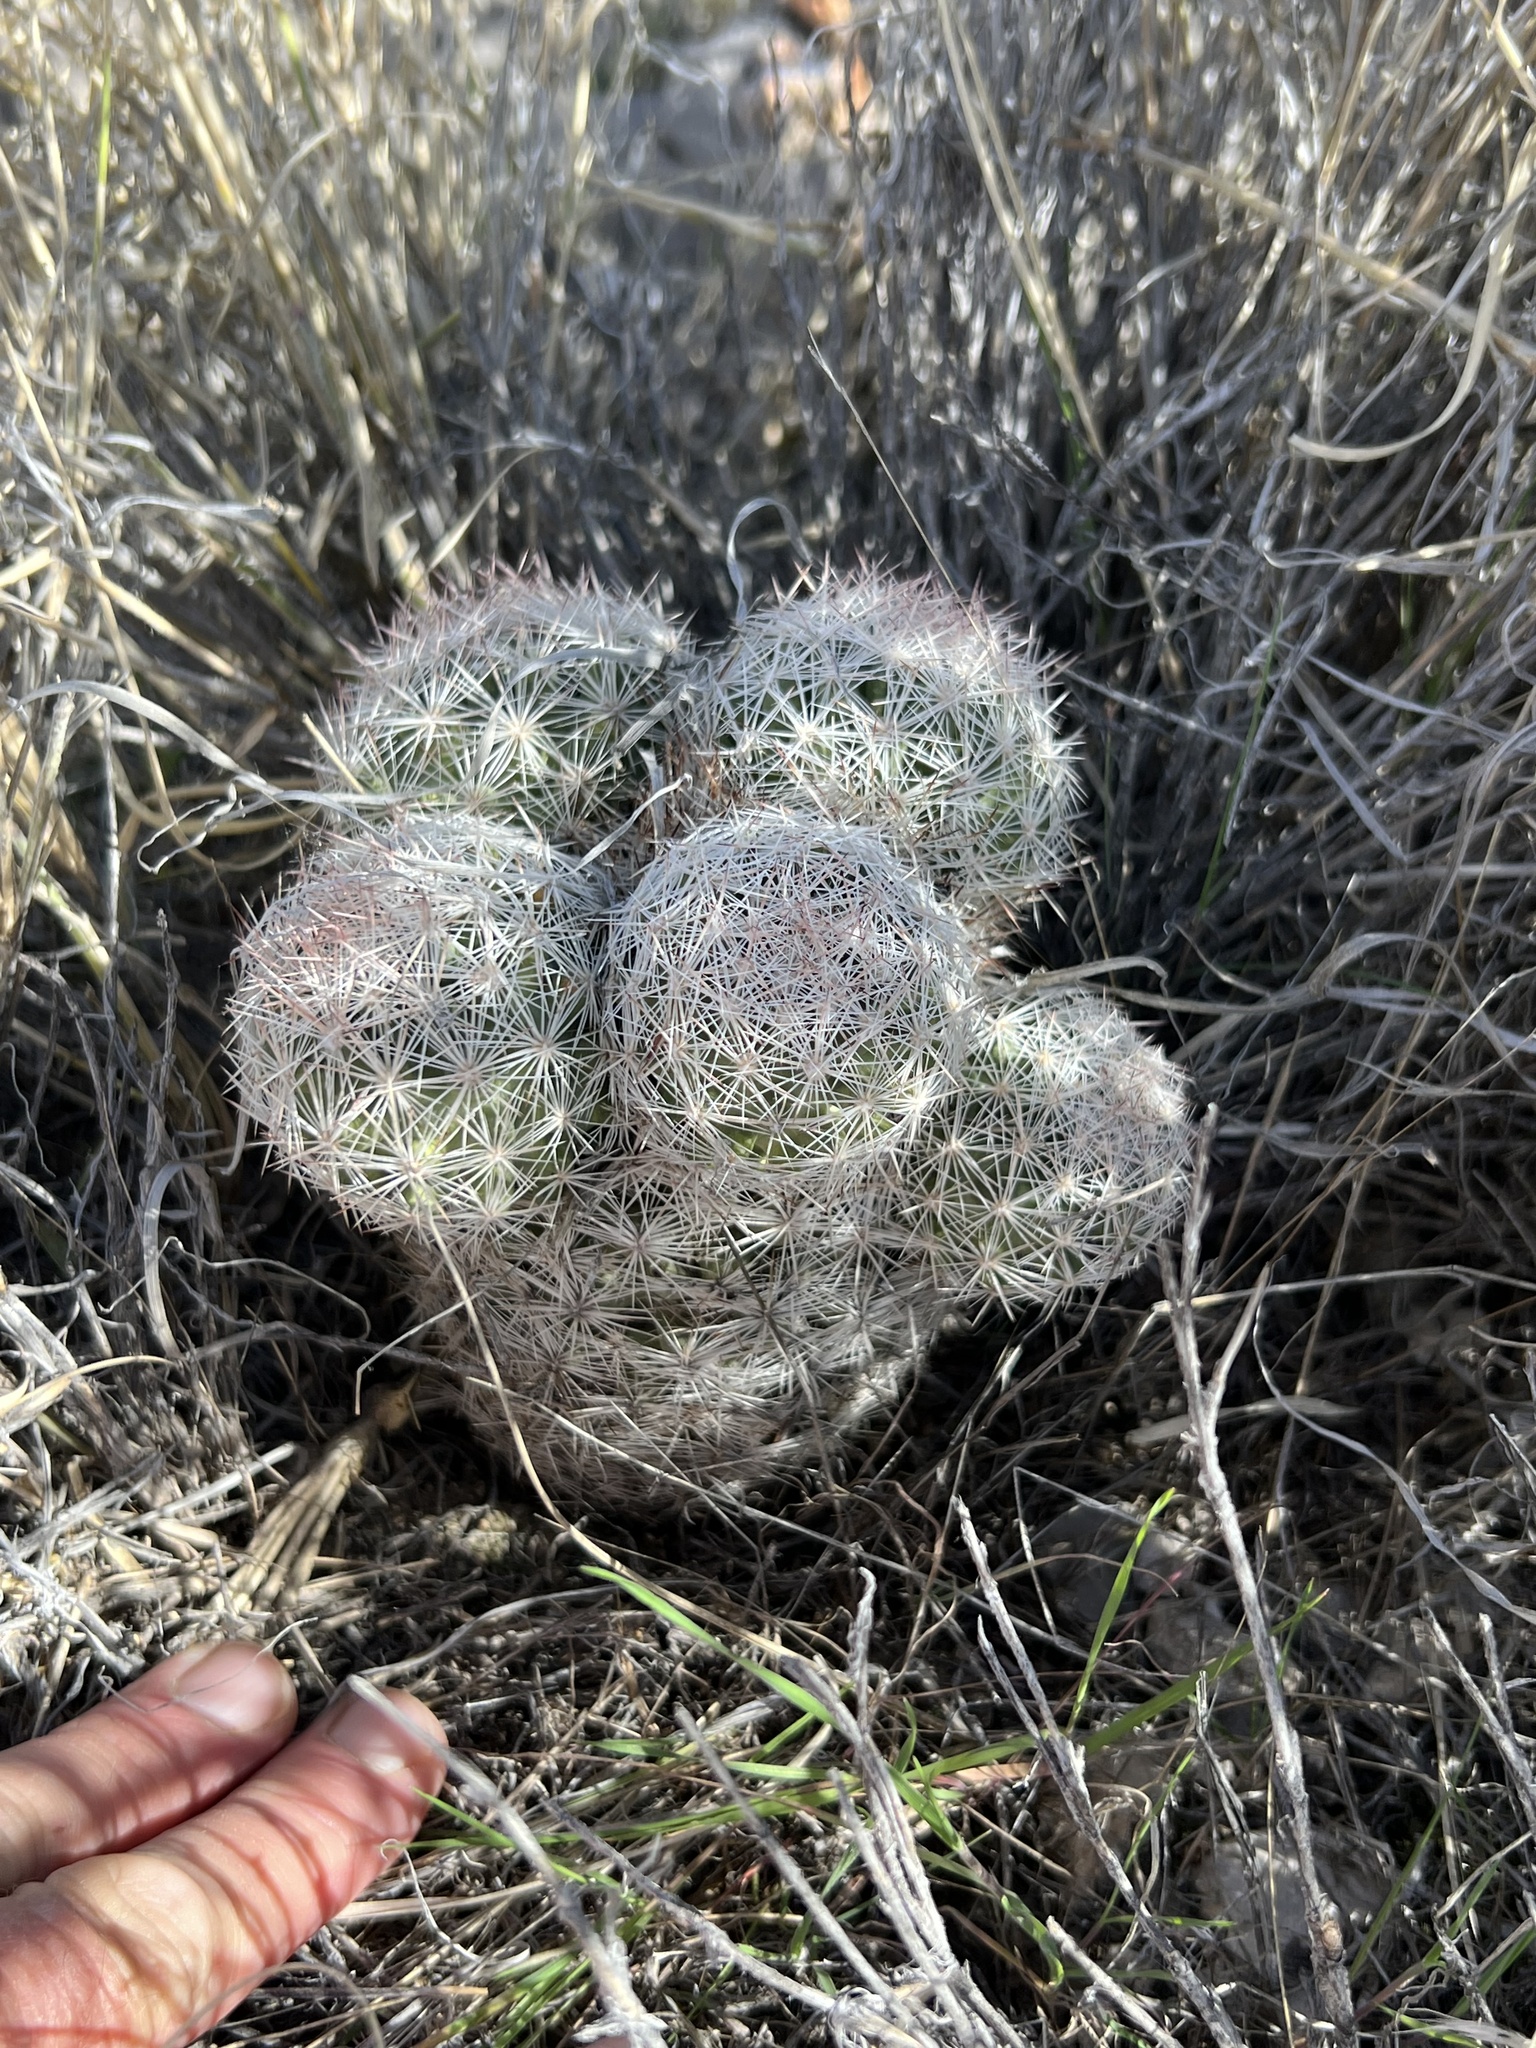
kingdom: Plantae
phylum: Tracheophyta
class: Magnoliopsida
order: Caryophyllales
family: Cactaceae
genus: Pelecyphora
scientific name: Pelecyphora dasyacantha
